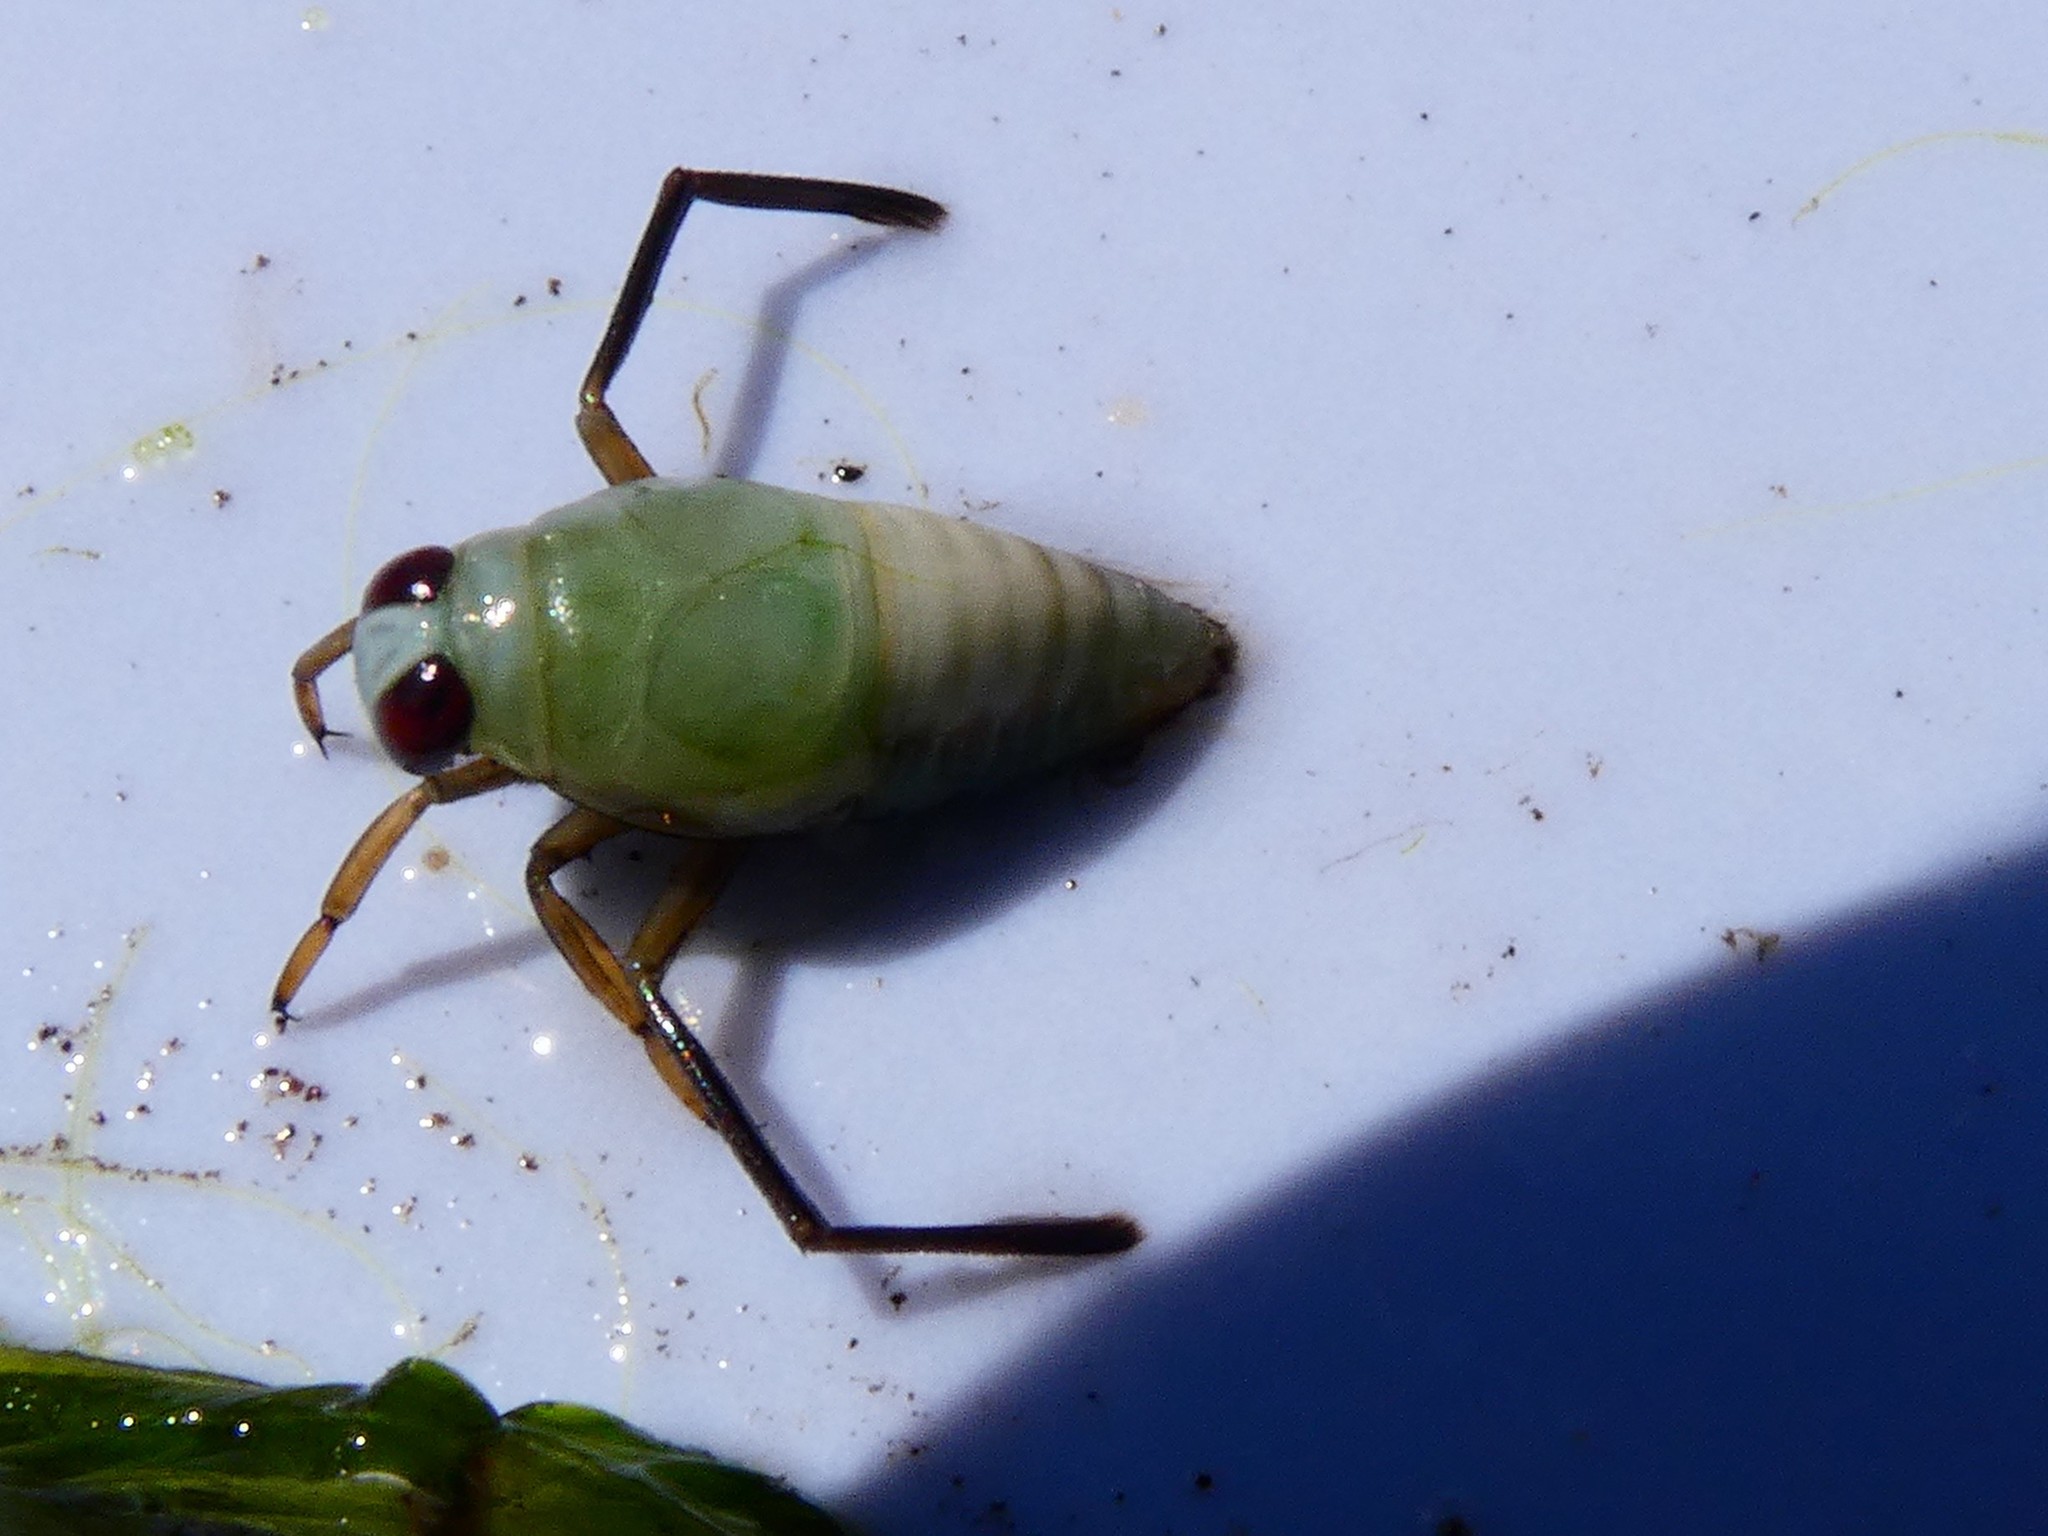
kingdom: Animalia
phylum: Arthropoda
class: Insecta
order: Hemiptera
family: Notonectidae
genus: Notonecta
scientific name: Notonecta
